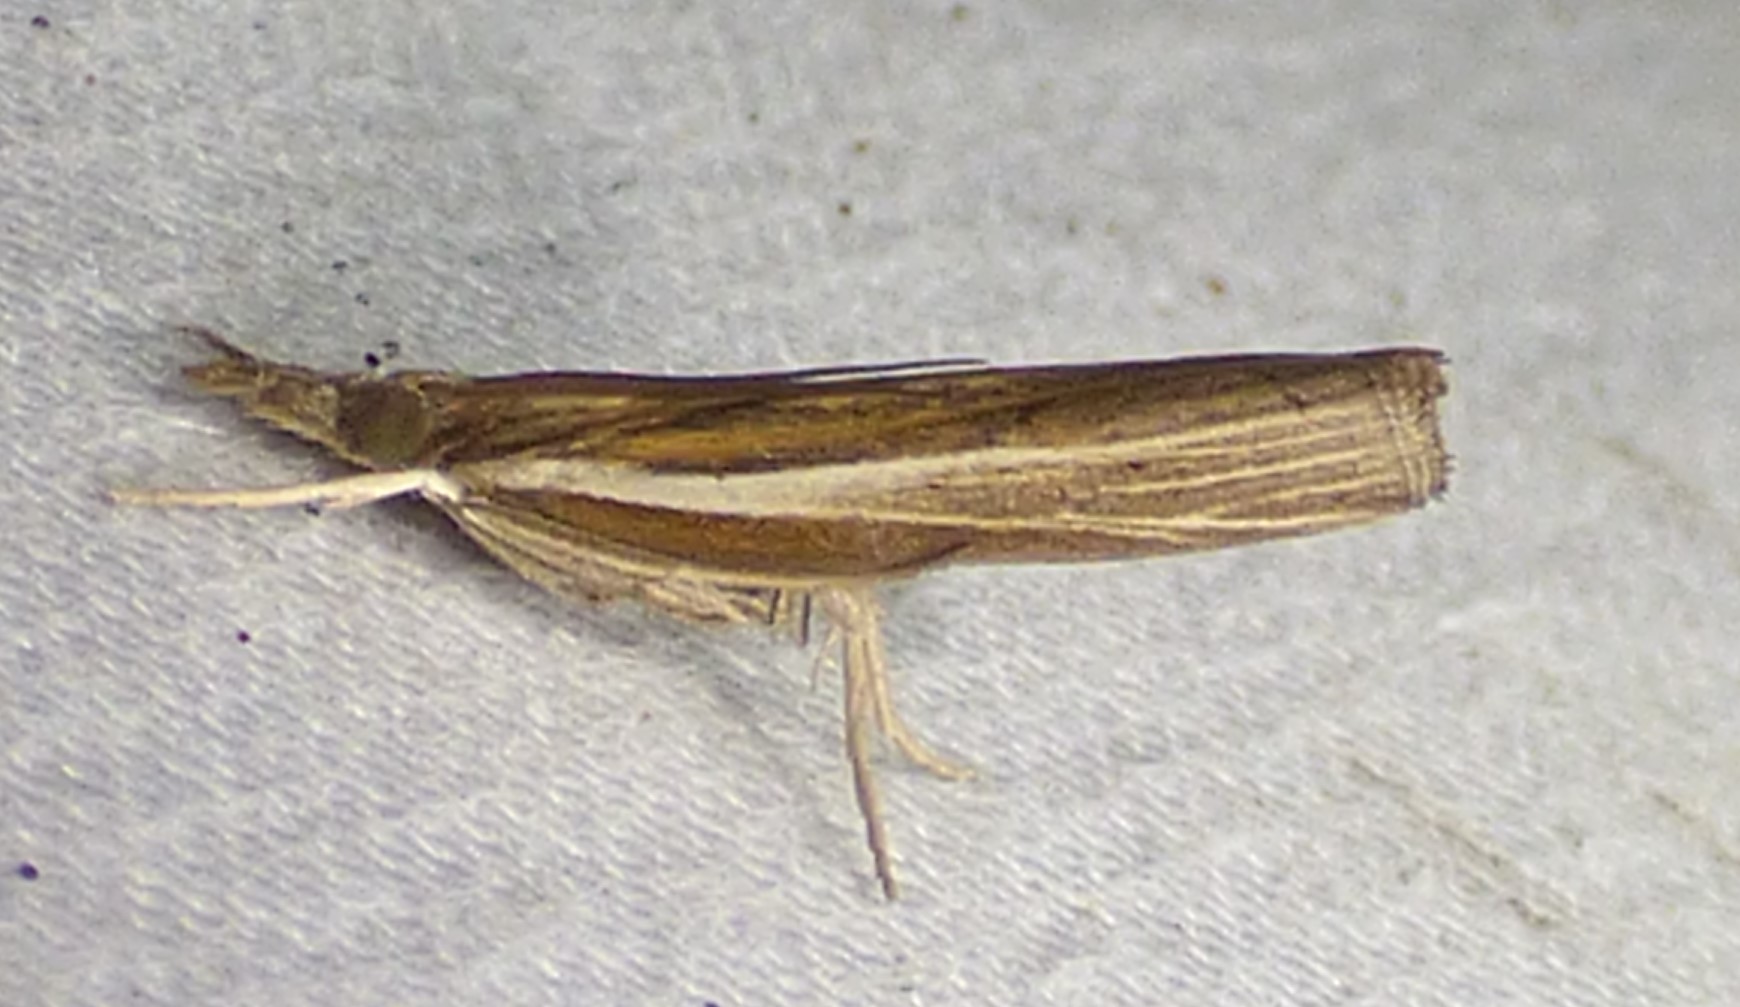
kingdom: Animalia
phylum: Arthropoda
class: Insecta
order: Lepidoptera
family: Crambidae
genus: Fissicrambus
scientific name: Fissicrambus fissiradiellus
